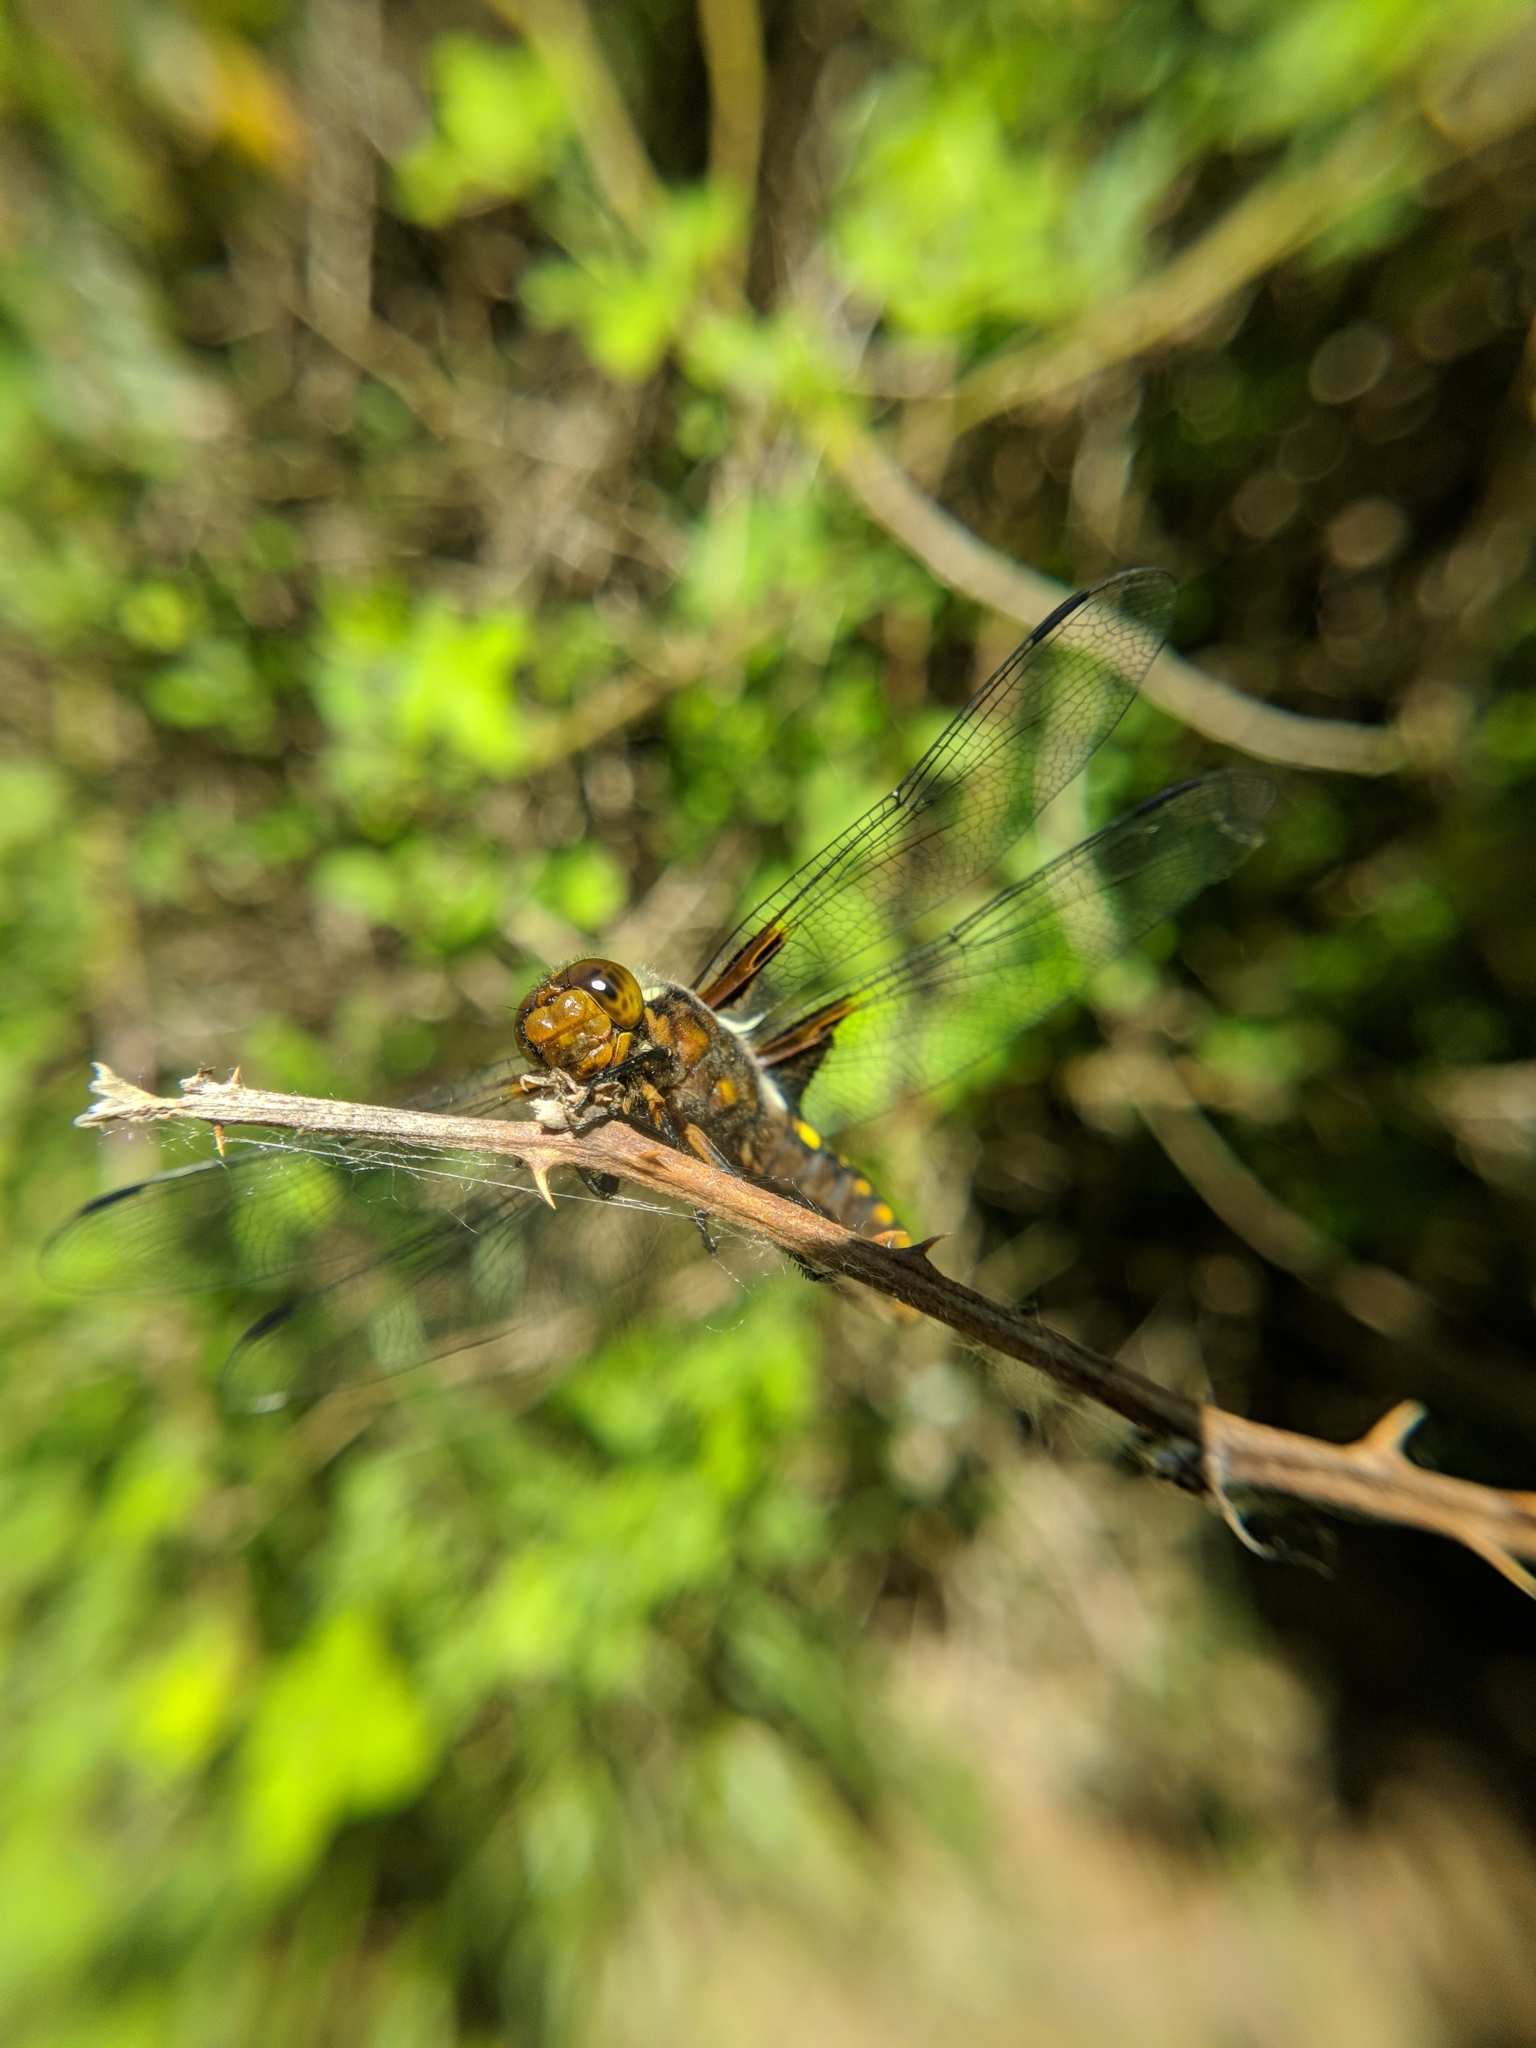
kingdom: Animalia
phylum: Arthropoda
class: Insecta
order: Odonata
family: Libellulidae
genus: Libellula
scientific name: Libellula depressa
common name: Broad-bodied chaser
